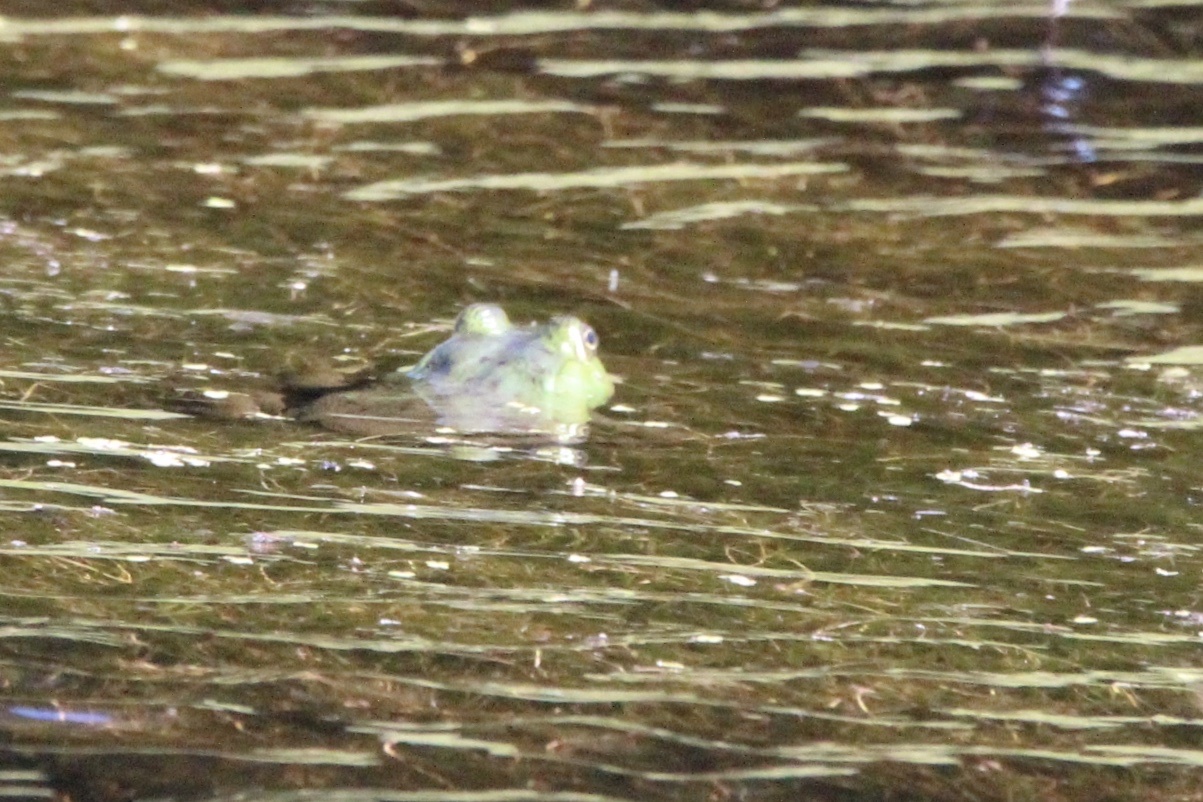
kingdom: Animalia
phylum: Chordata
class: Amphibia
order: Anura
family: Ranidae
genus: Lithobates
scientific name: Lithobates catesbeianus
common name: American bullfrog
